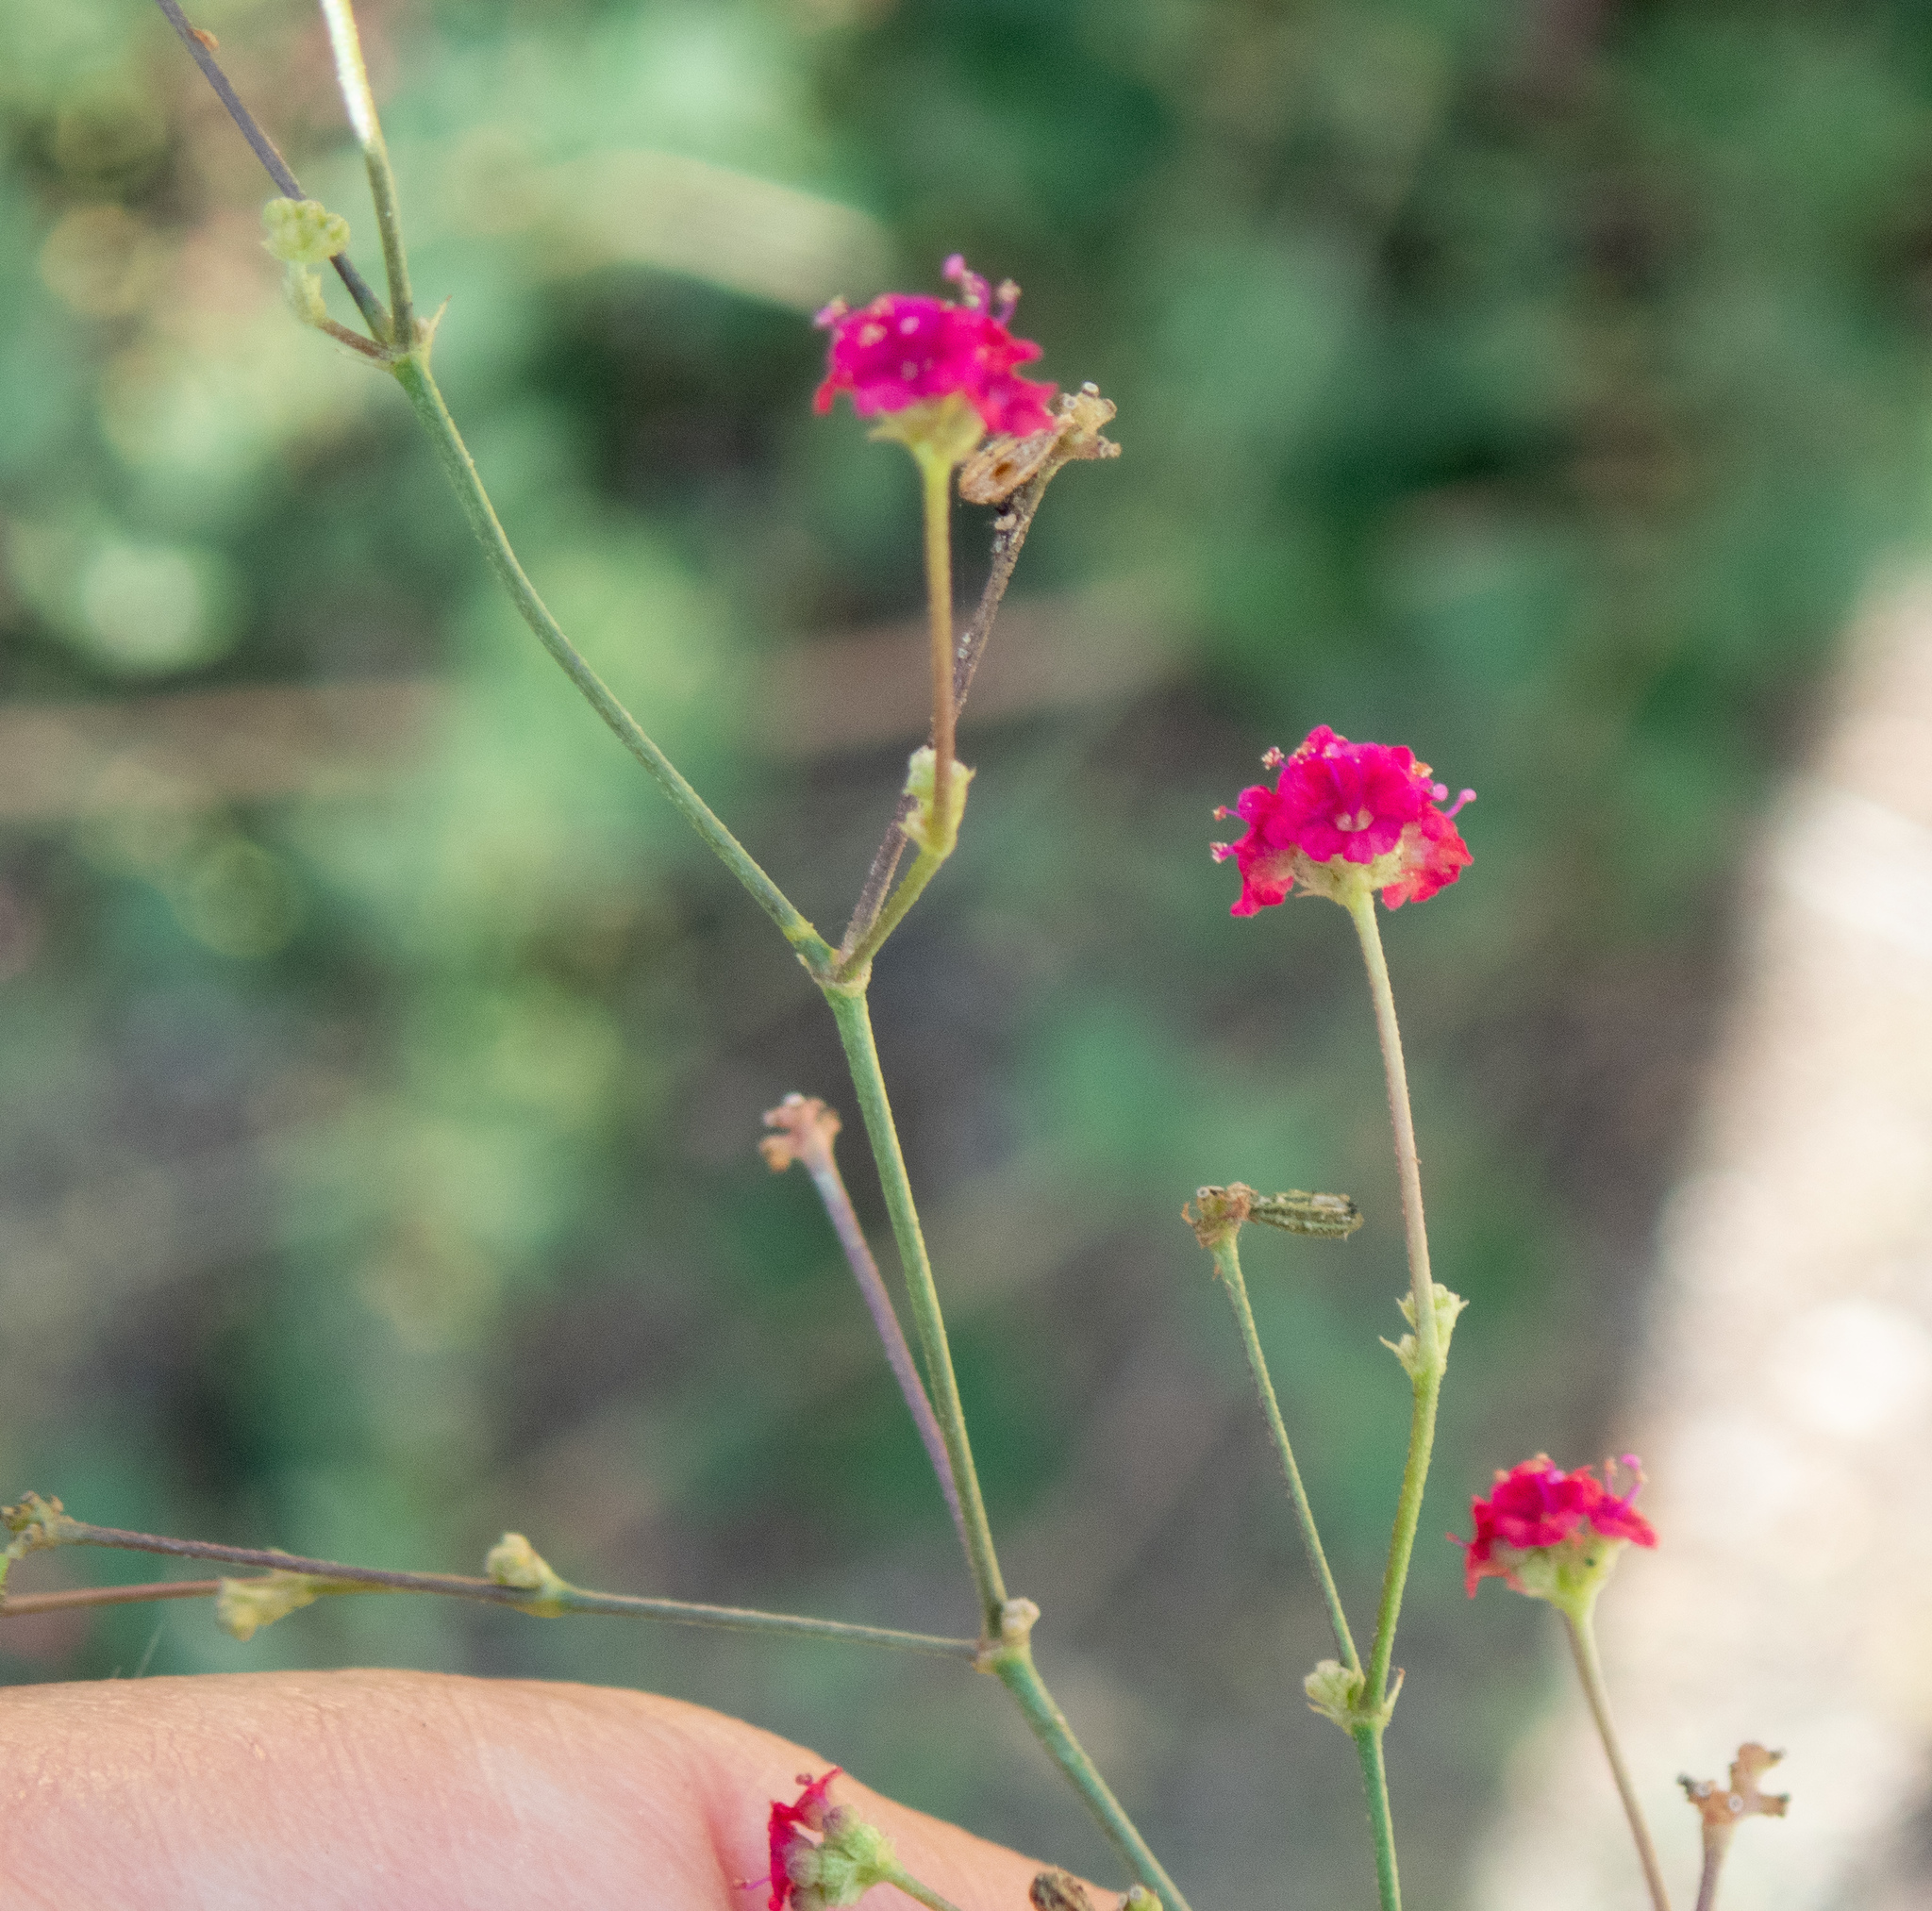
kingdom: Plantae
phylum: Tracheophyta
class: Magnoliopsida
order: Caryophyllales
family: Nyctaginaceae
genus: Boerhavia
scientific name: Boerhavia coccinea
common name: Scarlet spiderling
